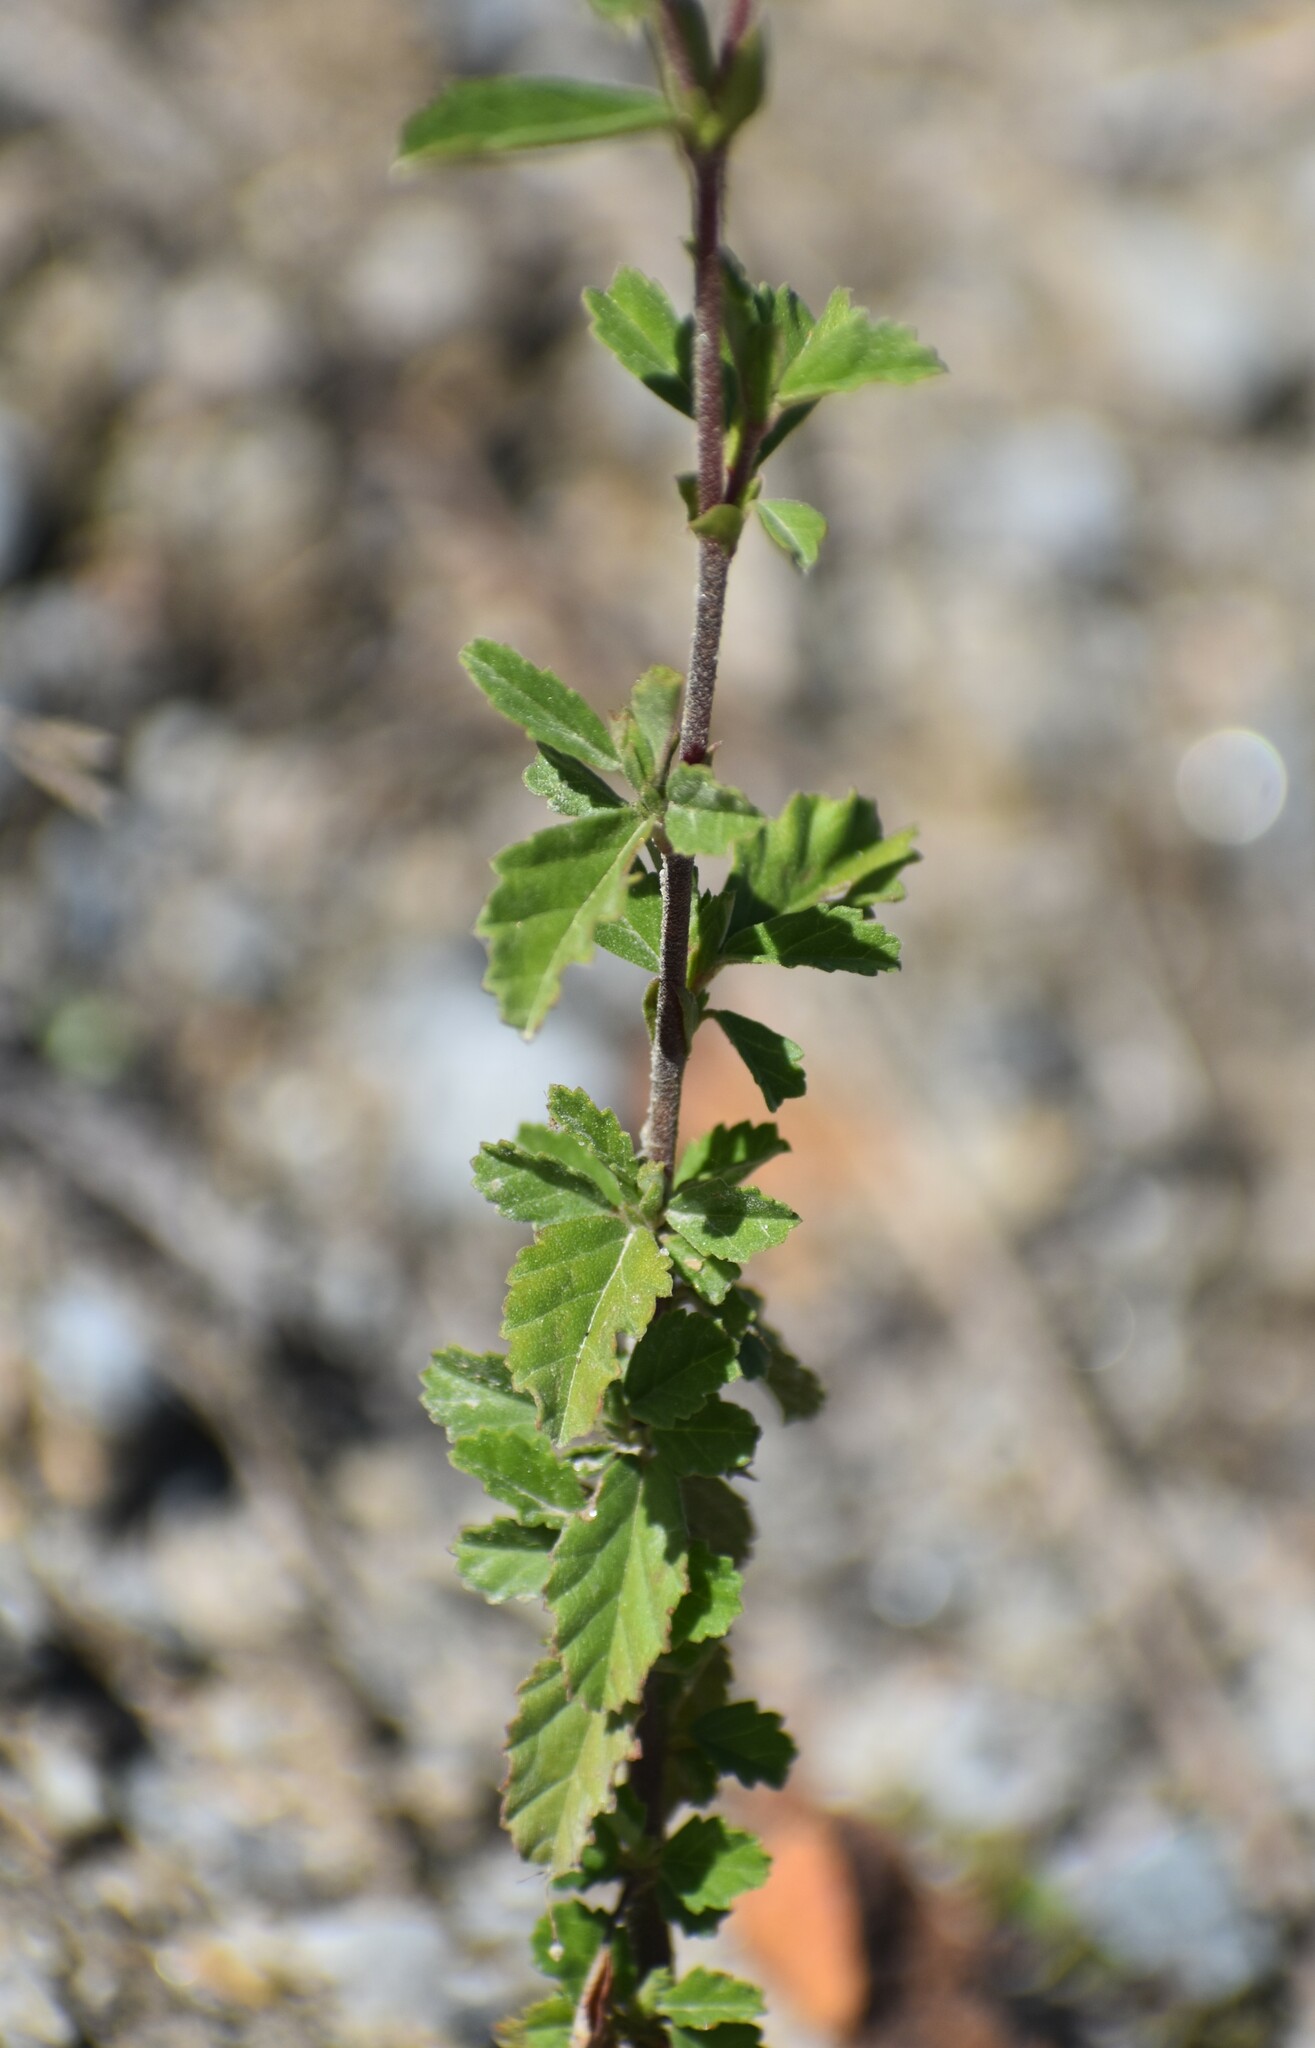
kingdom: Plantae
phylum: Tracheophyta
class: Magnoliopsida
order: Malvales
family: Malvaceae
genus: Hermannia
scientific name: Hermannia hyssopifolia
